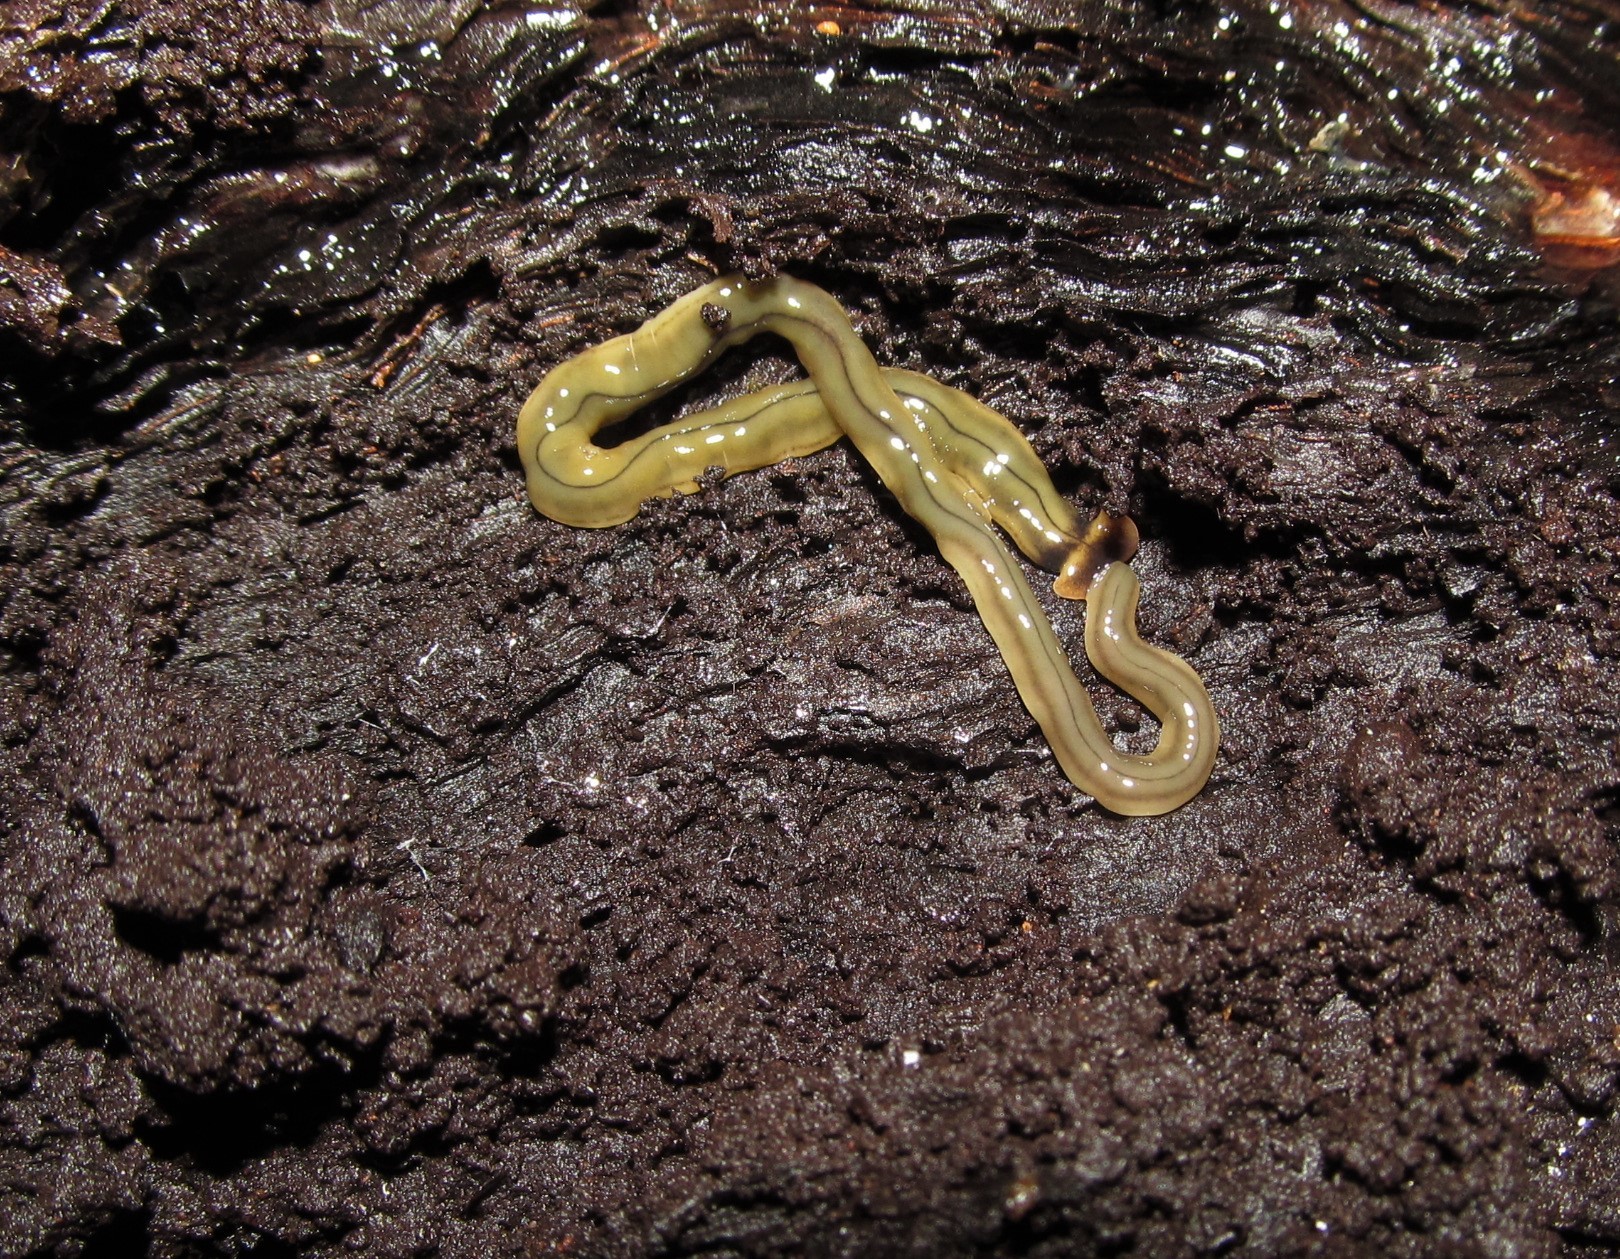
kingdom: Animalia
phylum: Platyhelminthes
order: Tricladida
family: Geoplanidae
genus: Bipalium
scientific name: Bipalium kewense
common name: Hammerhead flatworm
